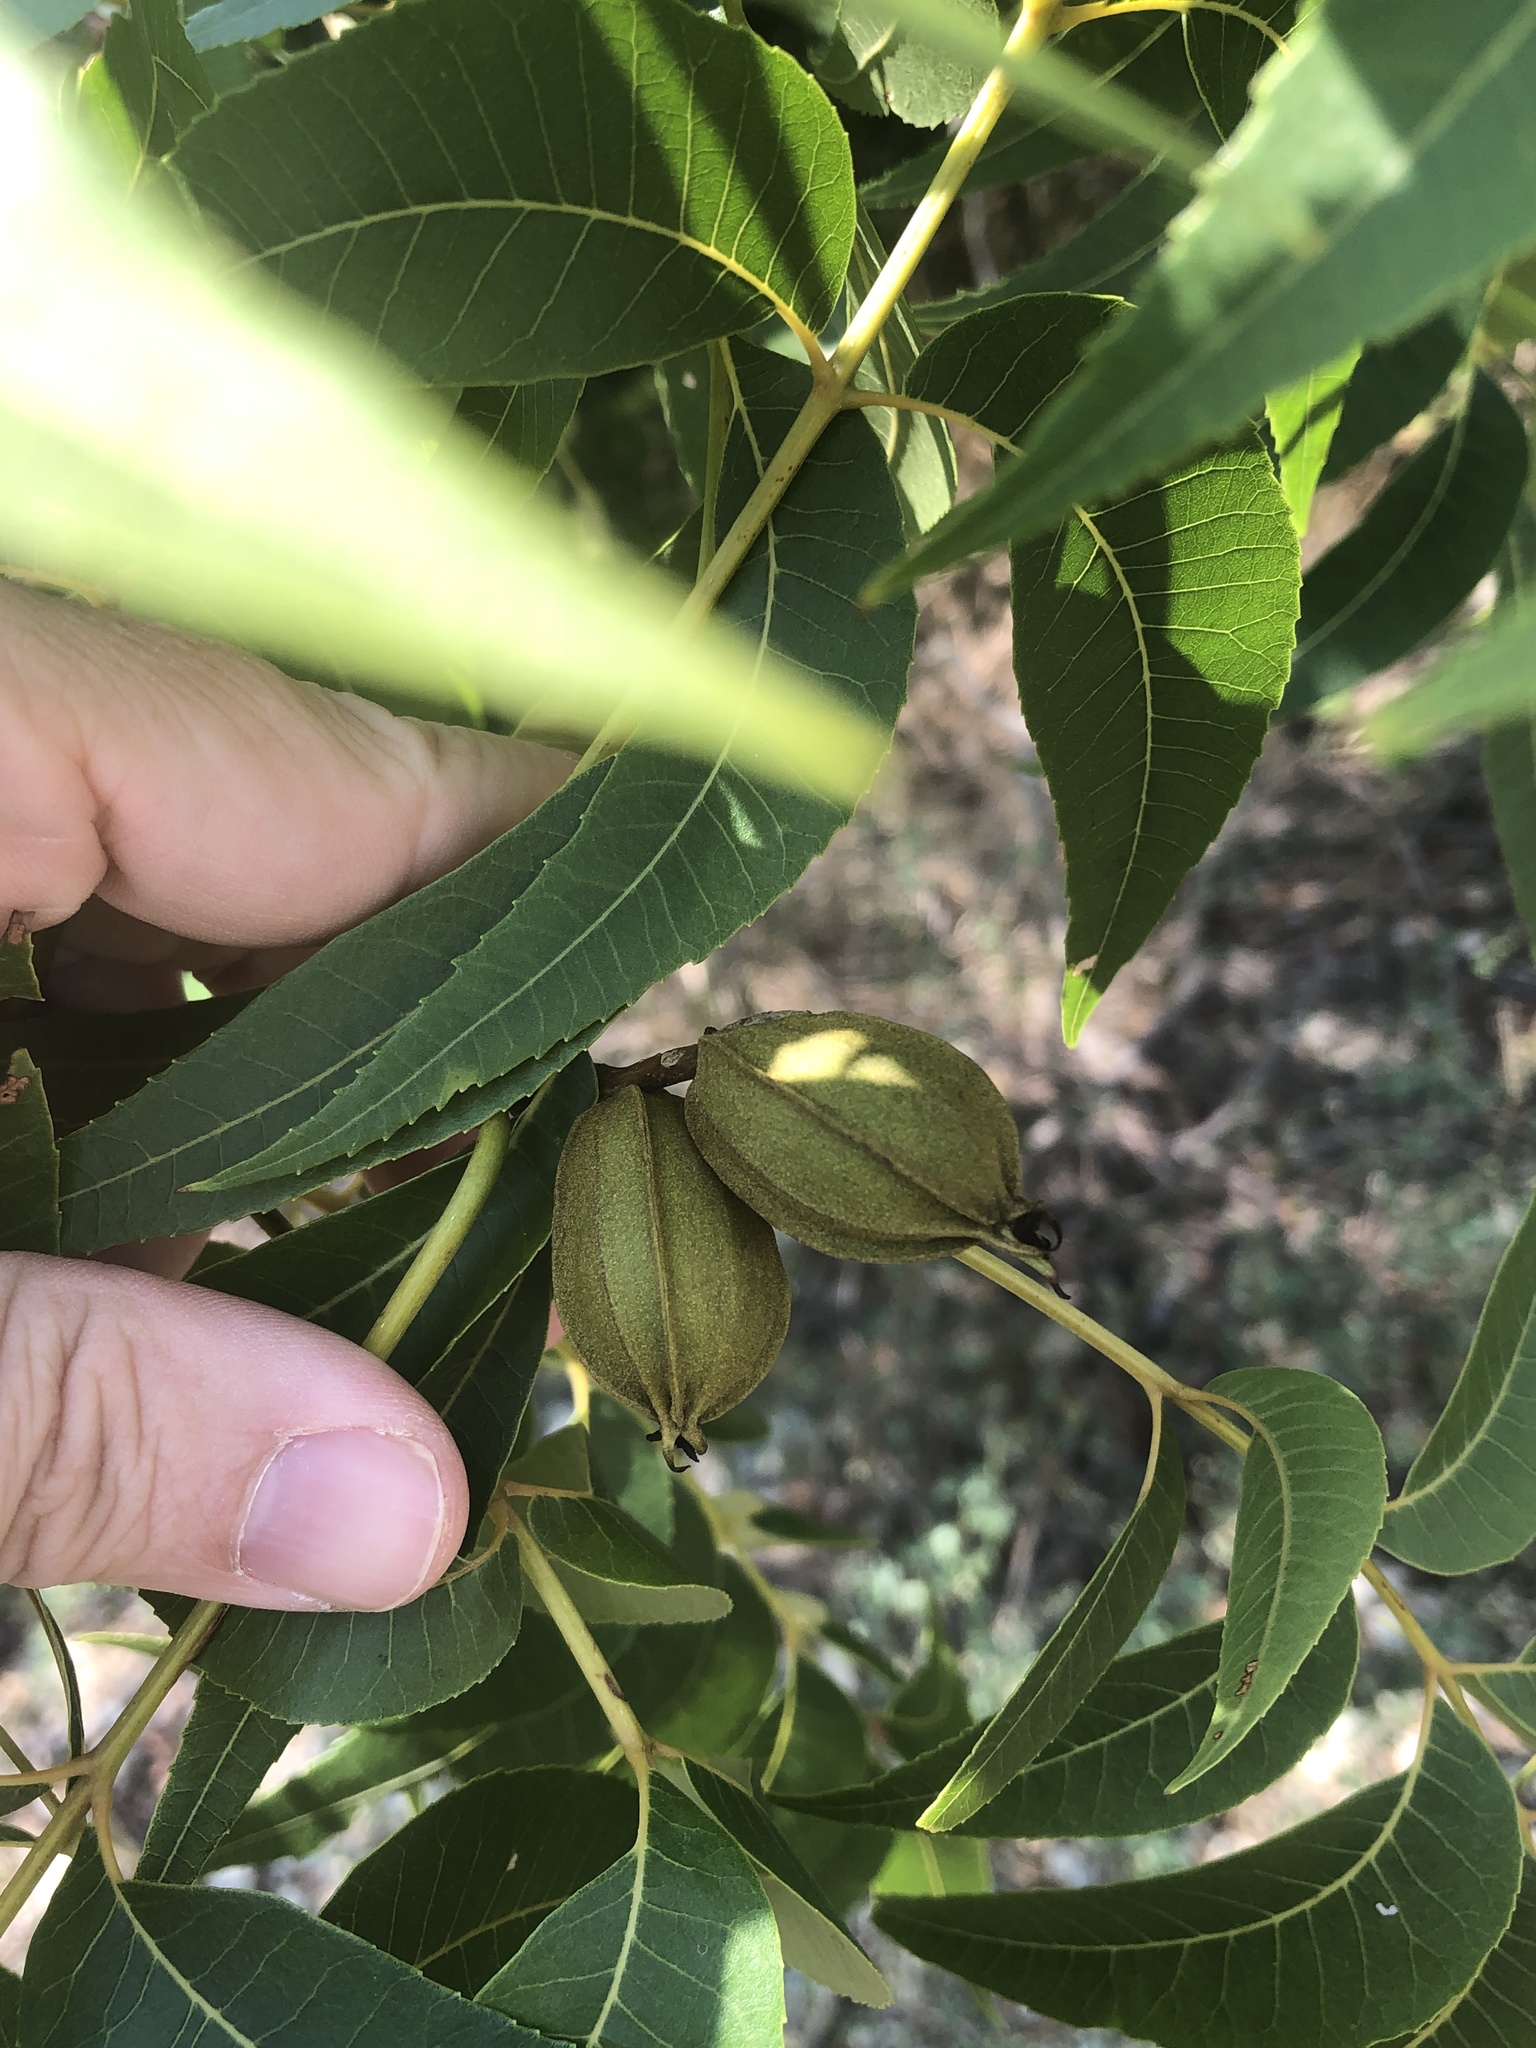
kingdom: Plantae
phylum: Tracheophyta
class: Magnoliopsida
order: Fagales
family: Juglandaceae
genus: Carya
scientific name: Carya illinoinensis
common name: Pecan
